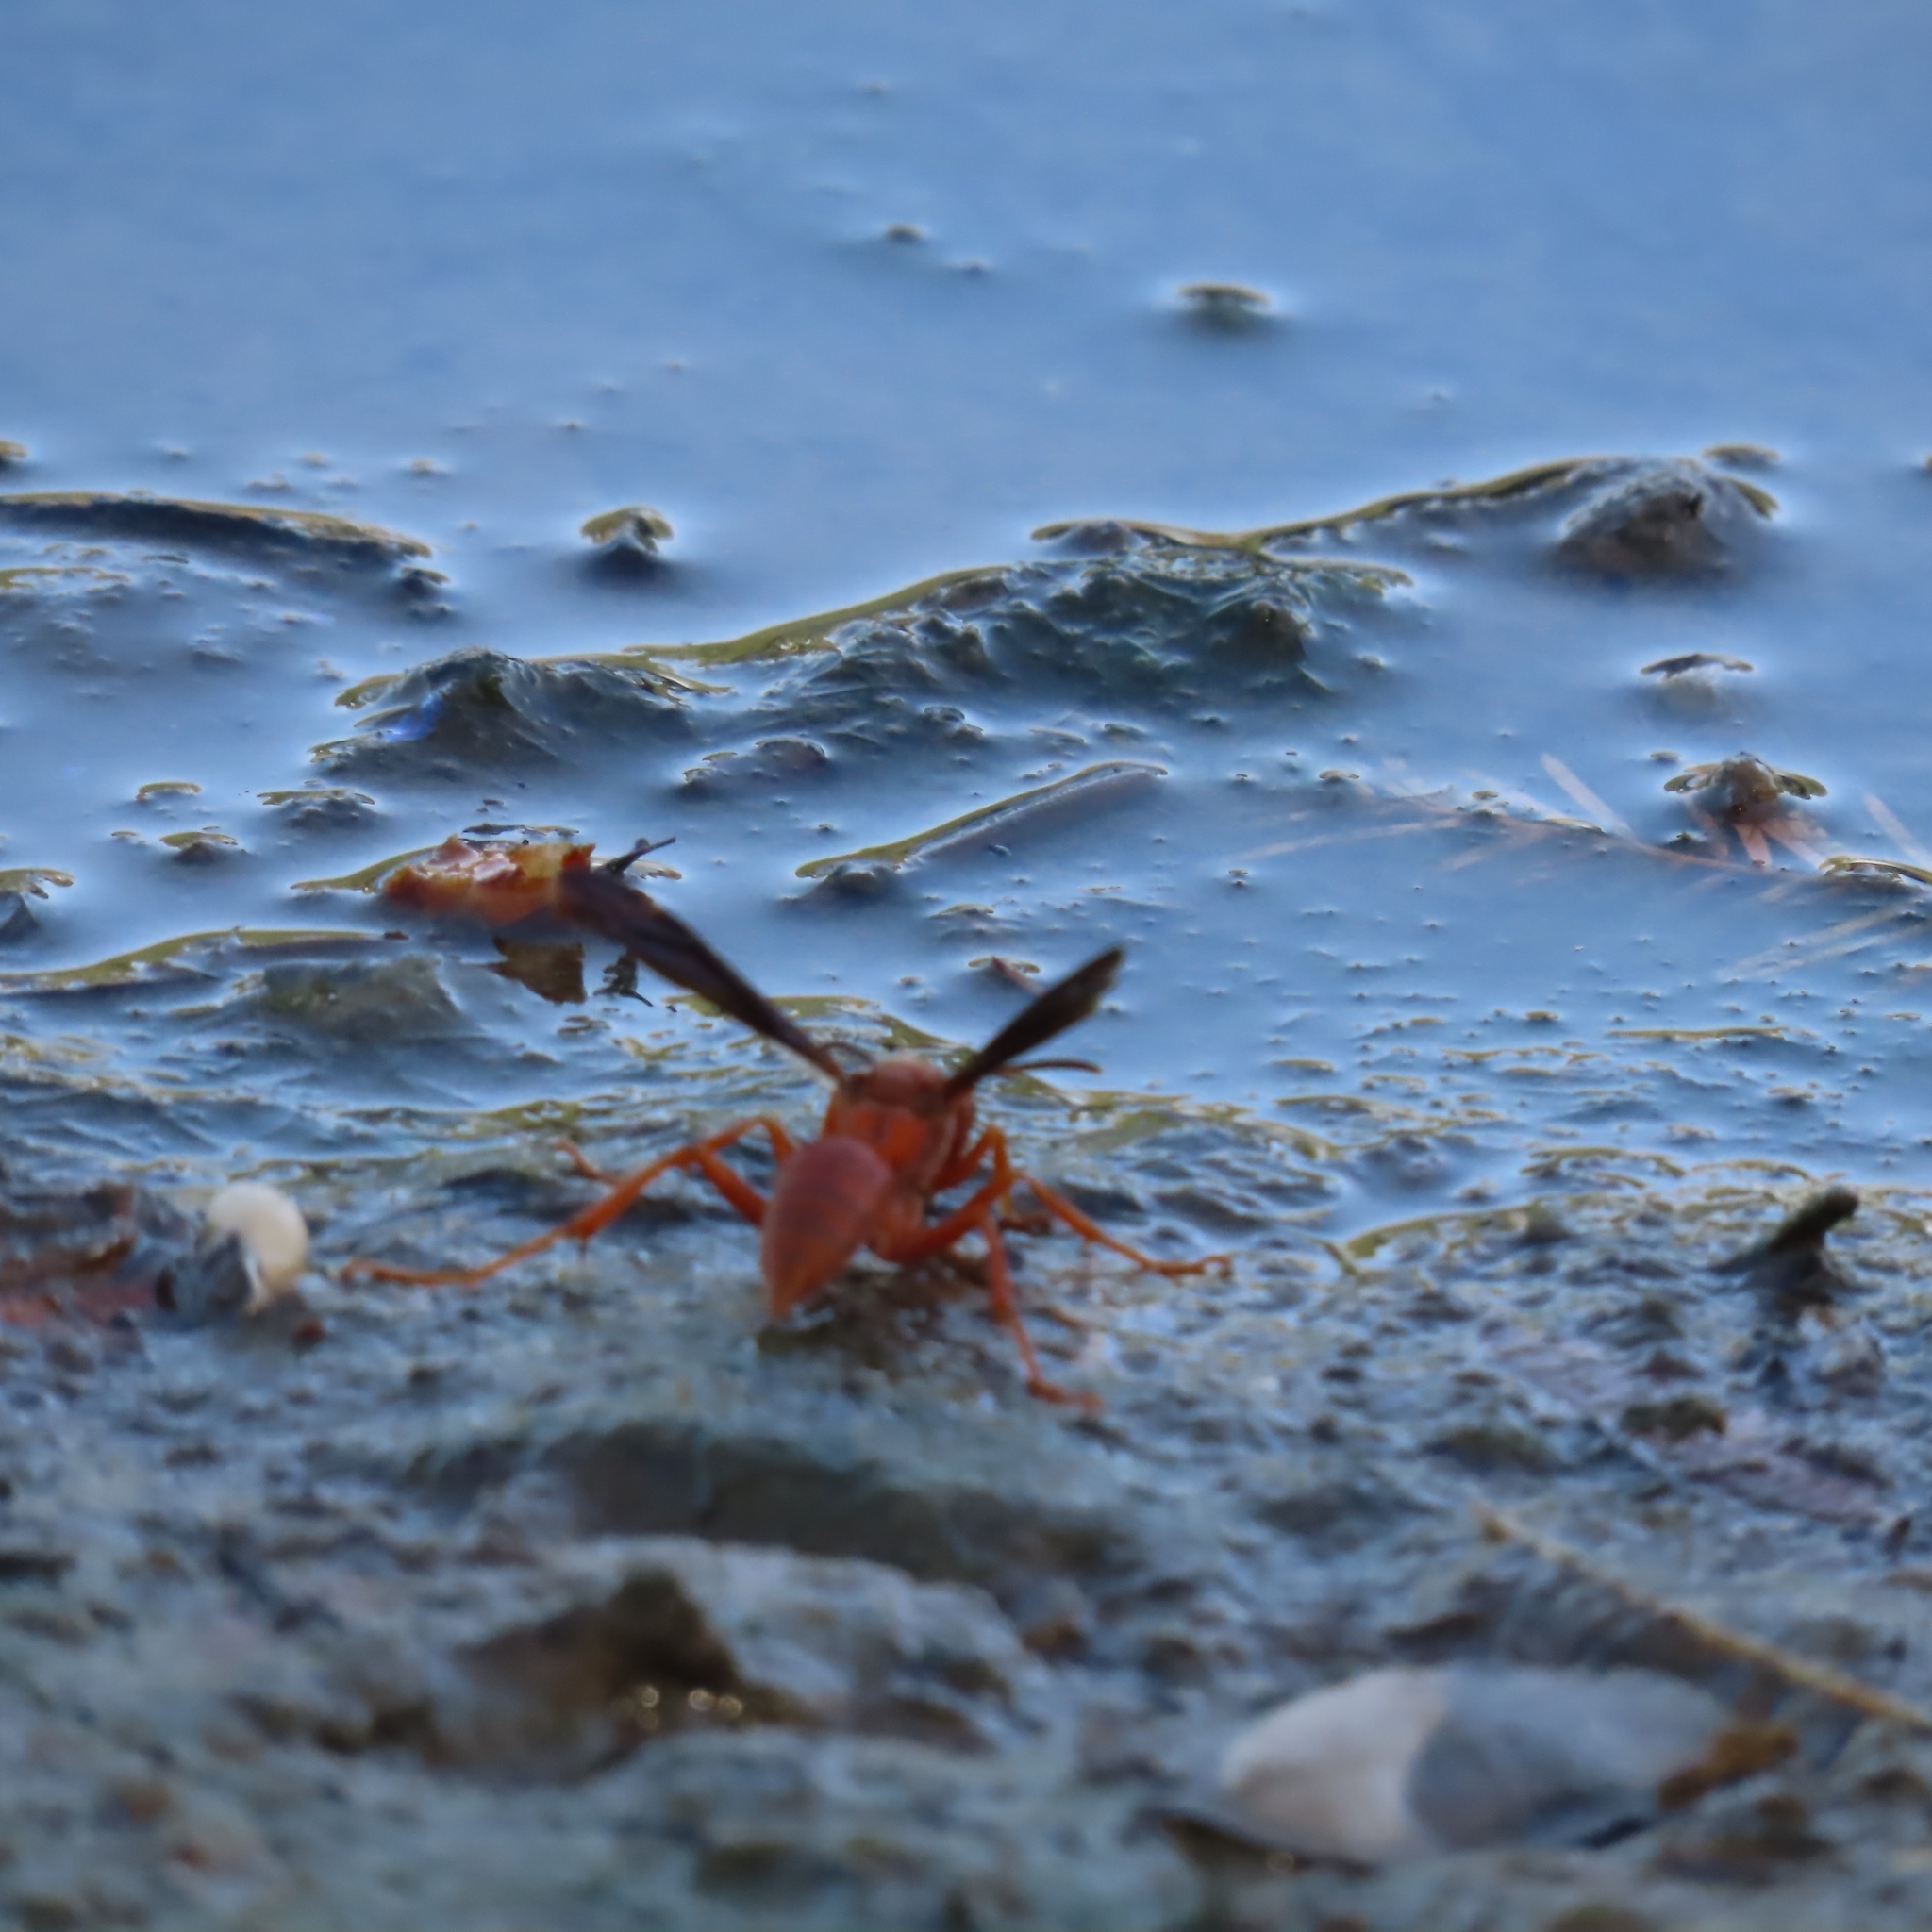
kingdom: Animalia
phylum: Arthropoda
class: Insecta
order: Hymenoptera
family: Vespidae
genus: Fuscopolistes
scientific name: Fuscopolistes
